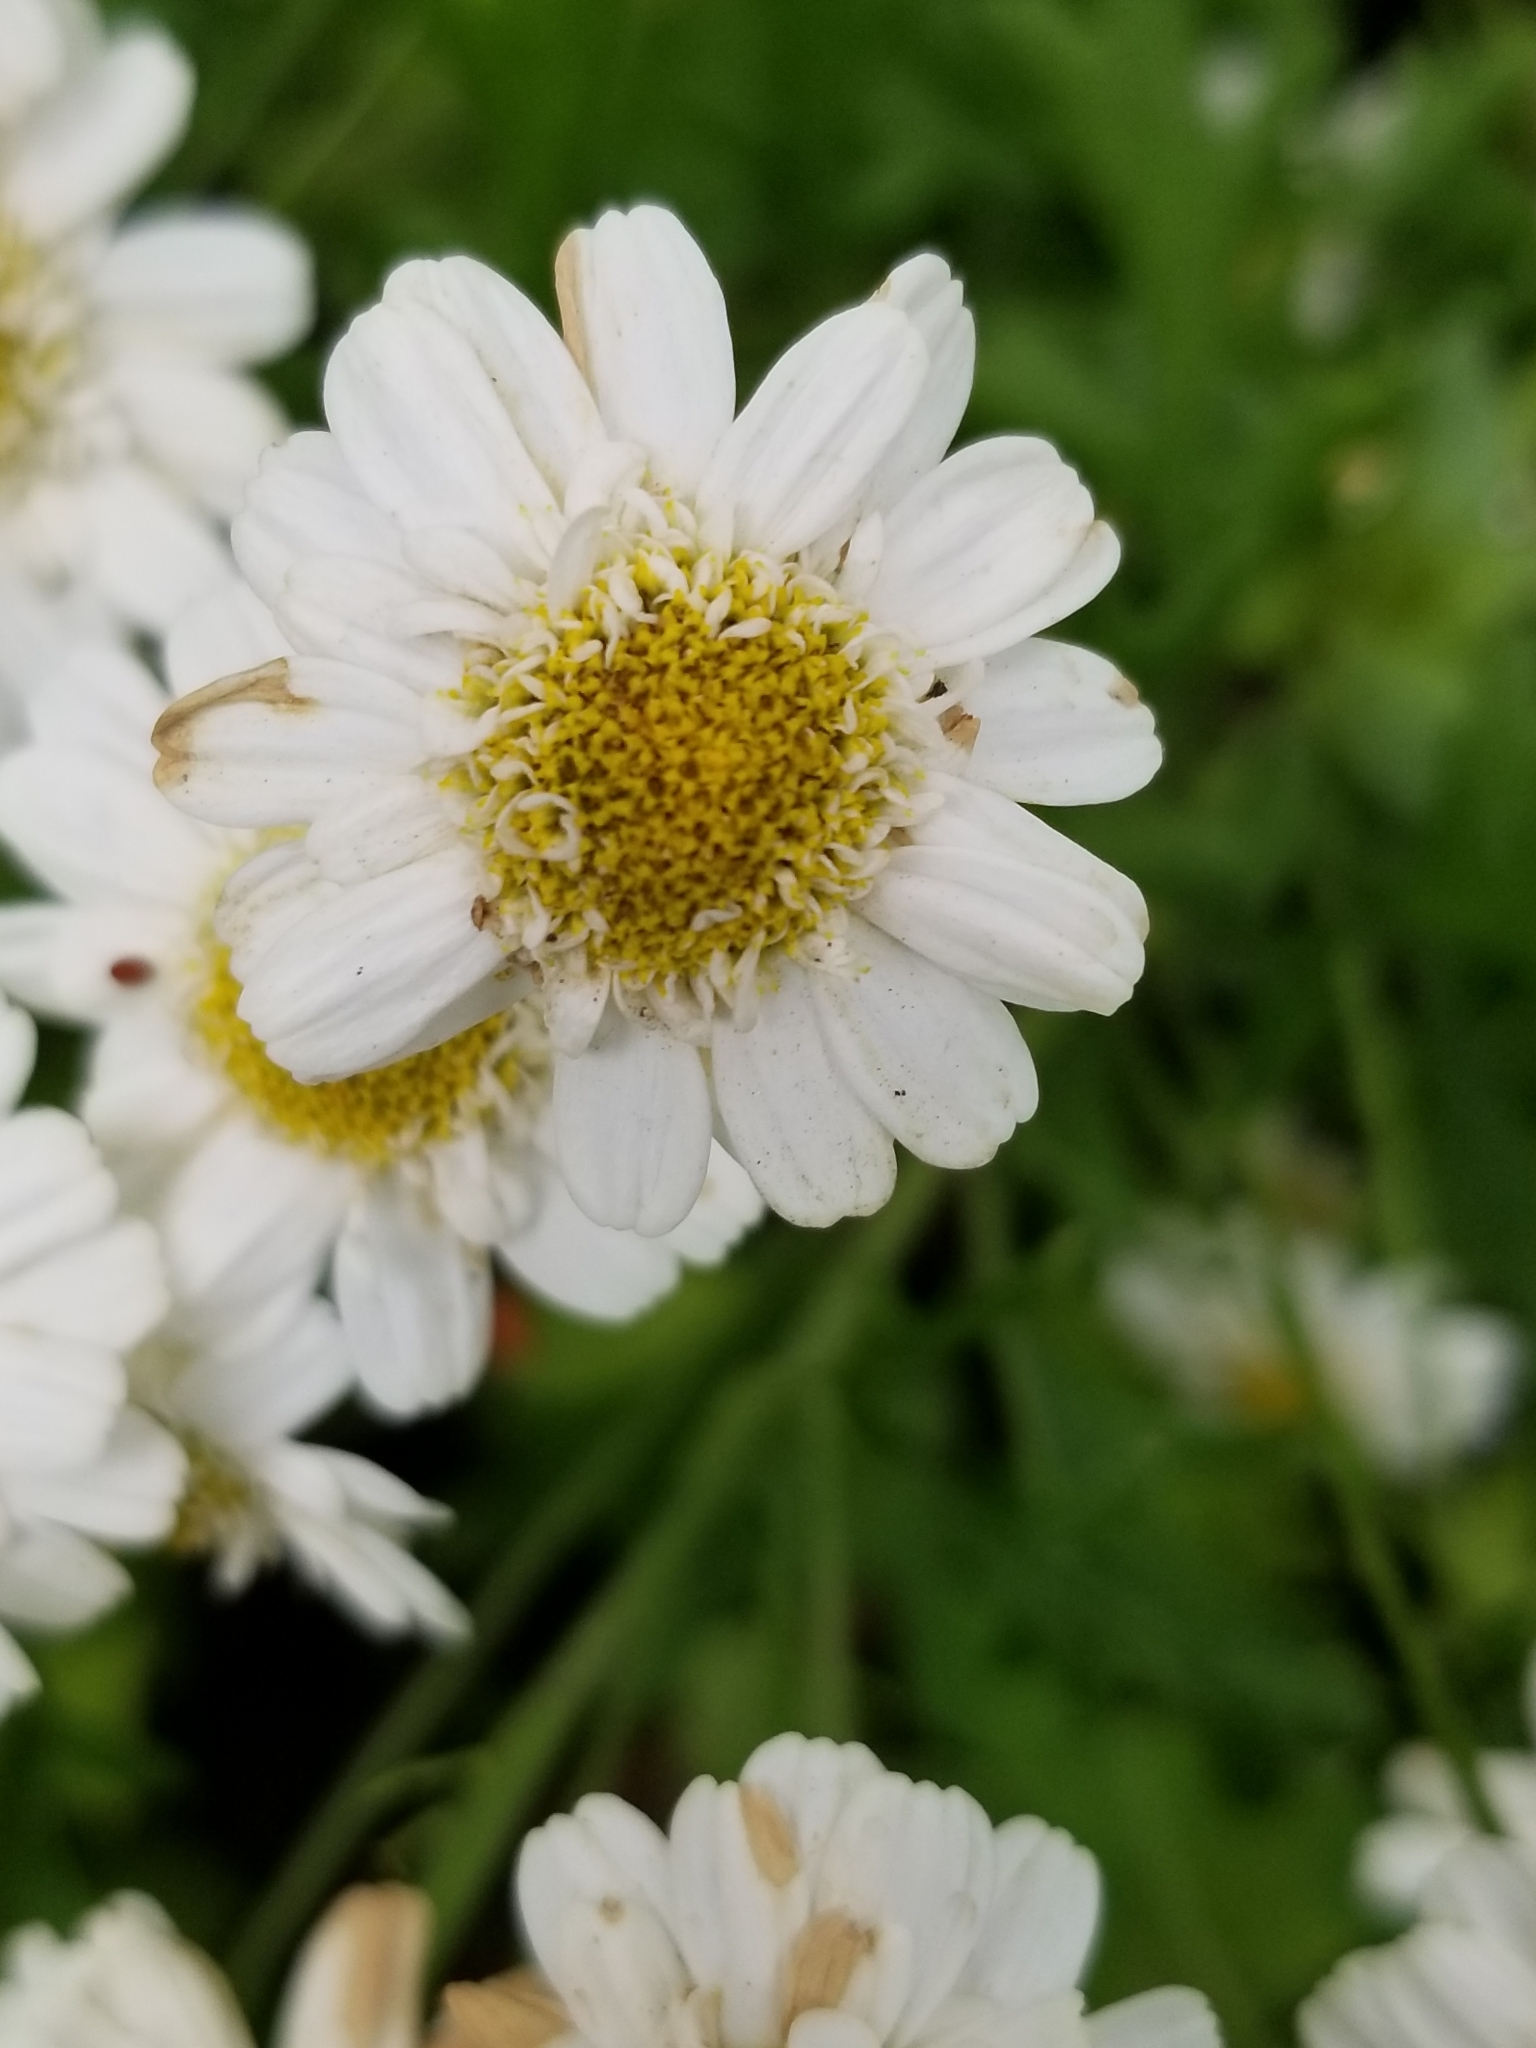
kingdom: Plantae
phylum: Tracheophyta
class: Magnoliopsida
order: Asterales
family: Asteraceae
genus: Tanacetum
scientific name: Tanacetum parthenium
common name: Feverfew
